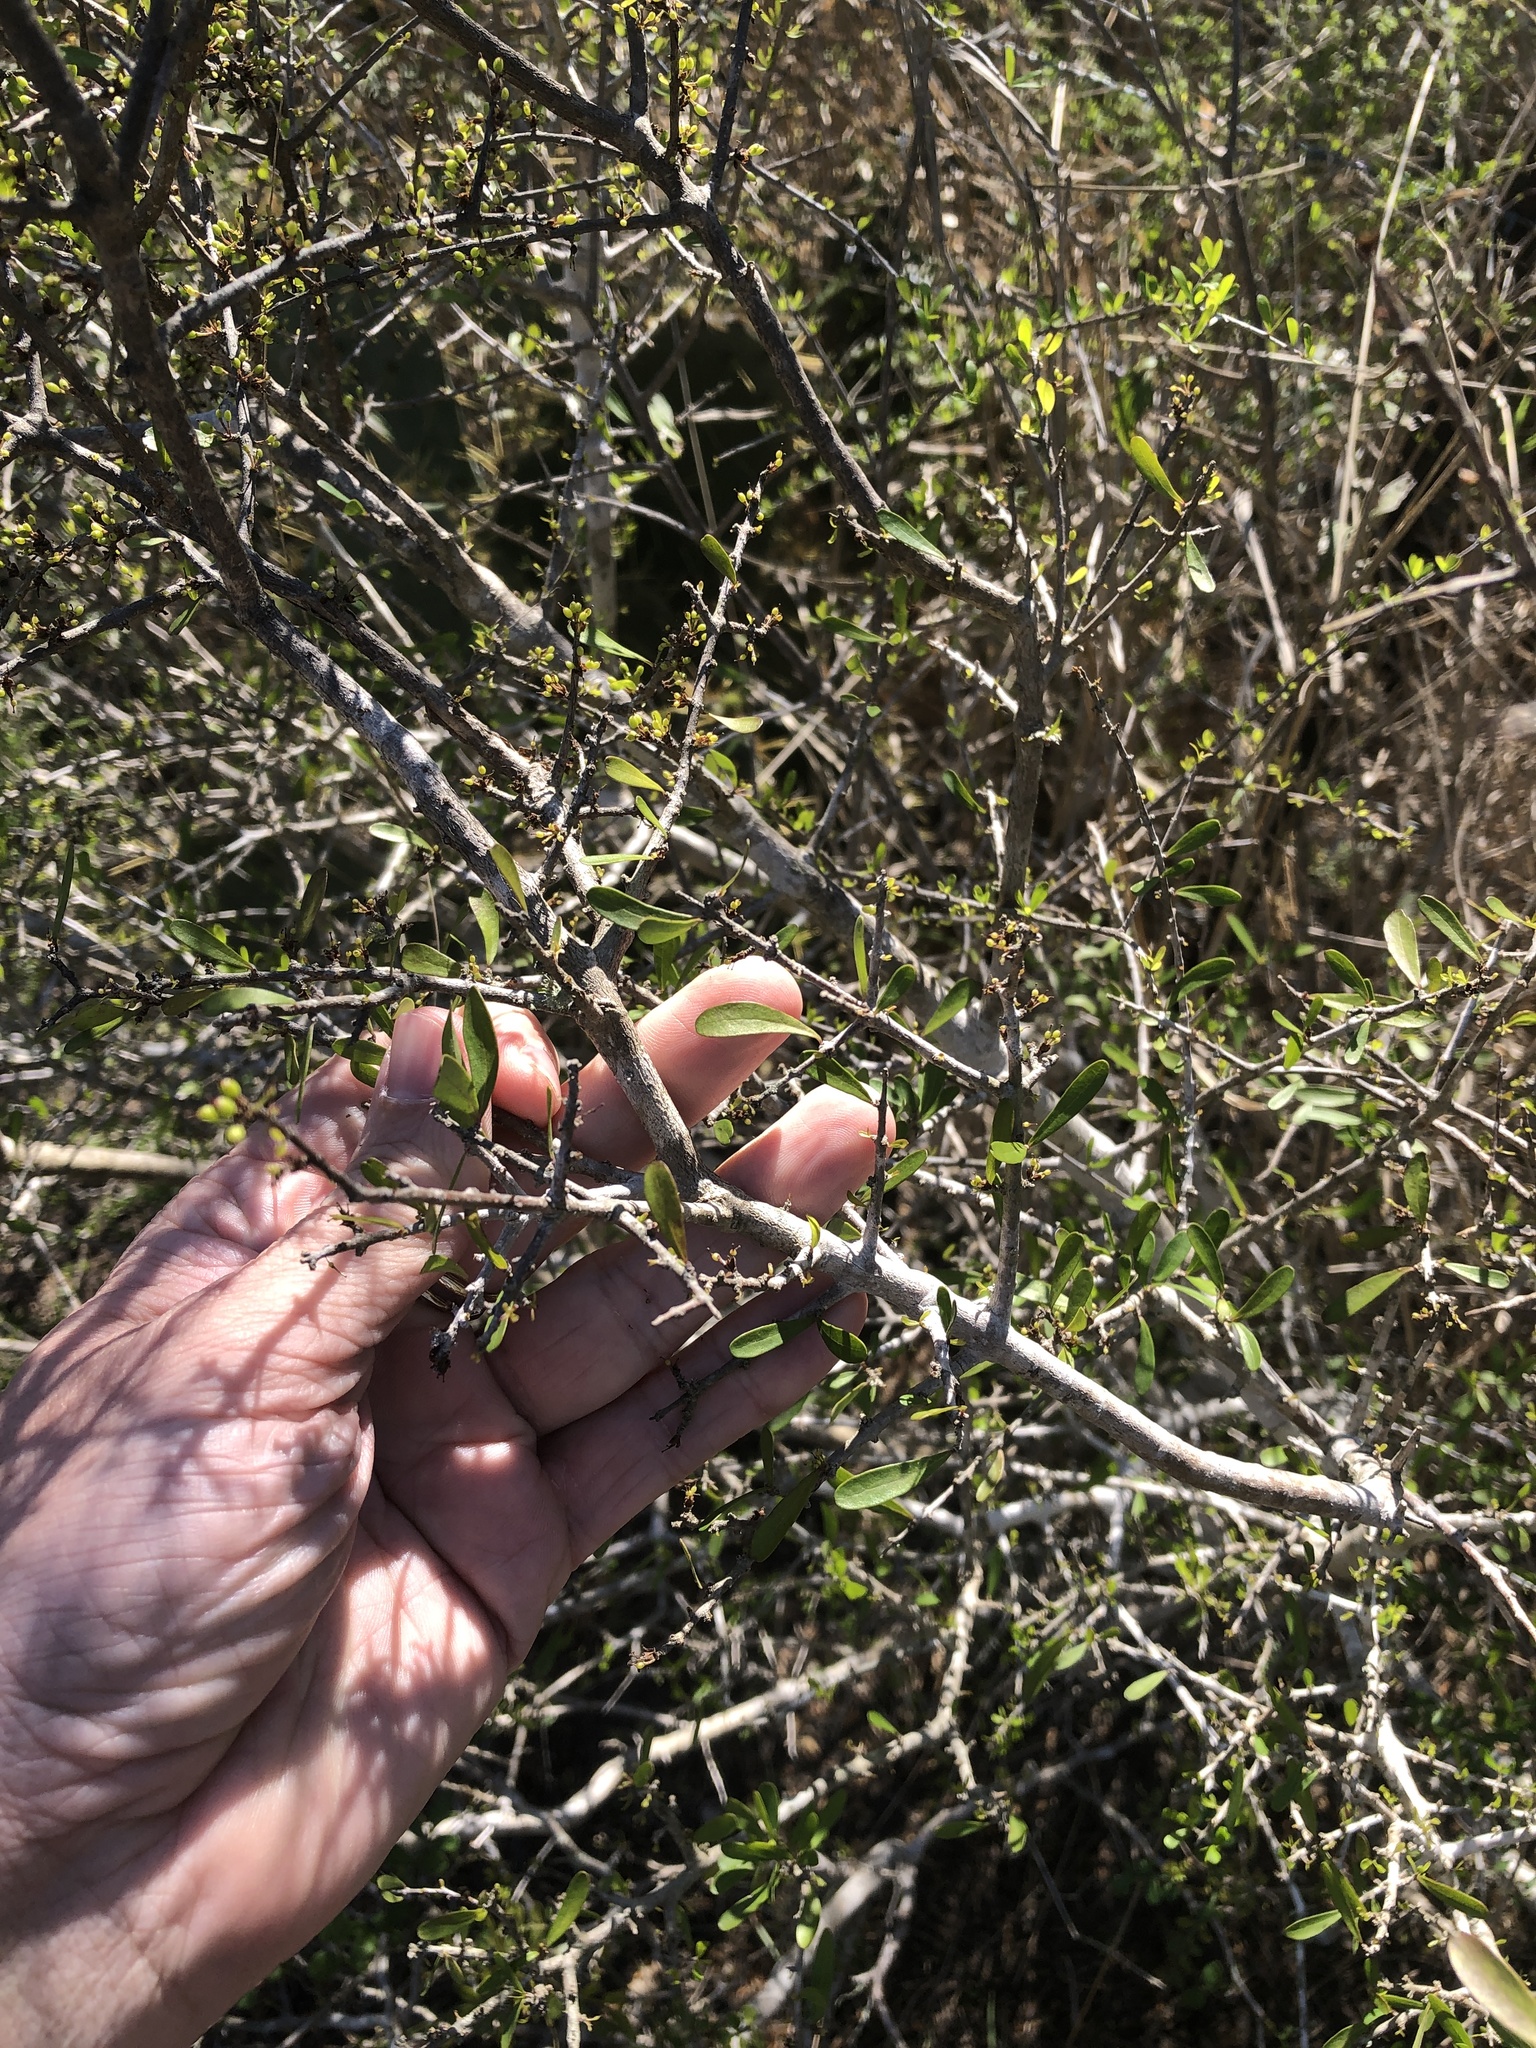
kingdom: Plantae
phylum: Tracheophyta
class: Magnoliopsida
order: Lamiales
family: Oleaceae
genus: Forestiera
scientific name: Forestiera angustifolia
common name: Elbowbush
